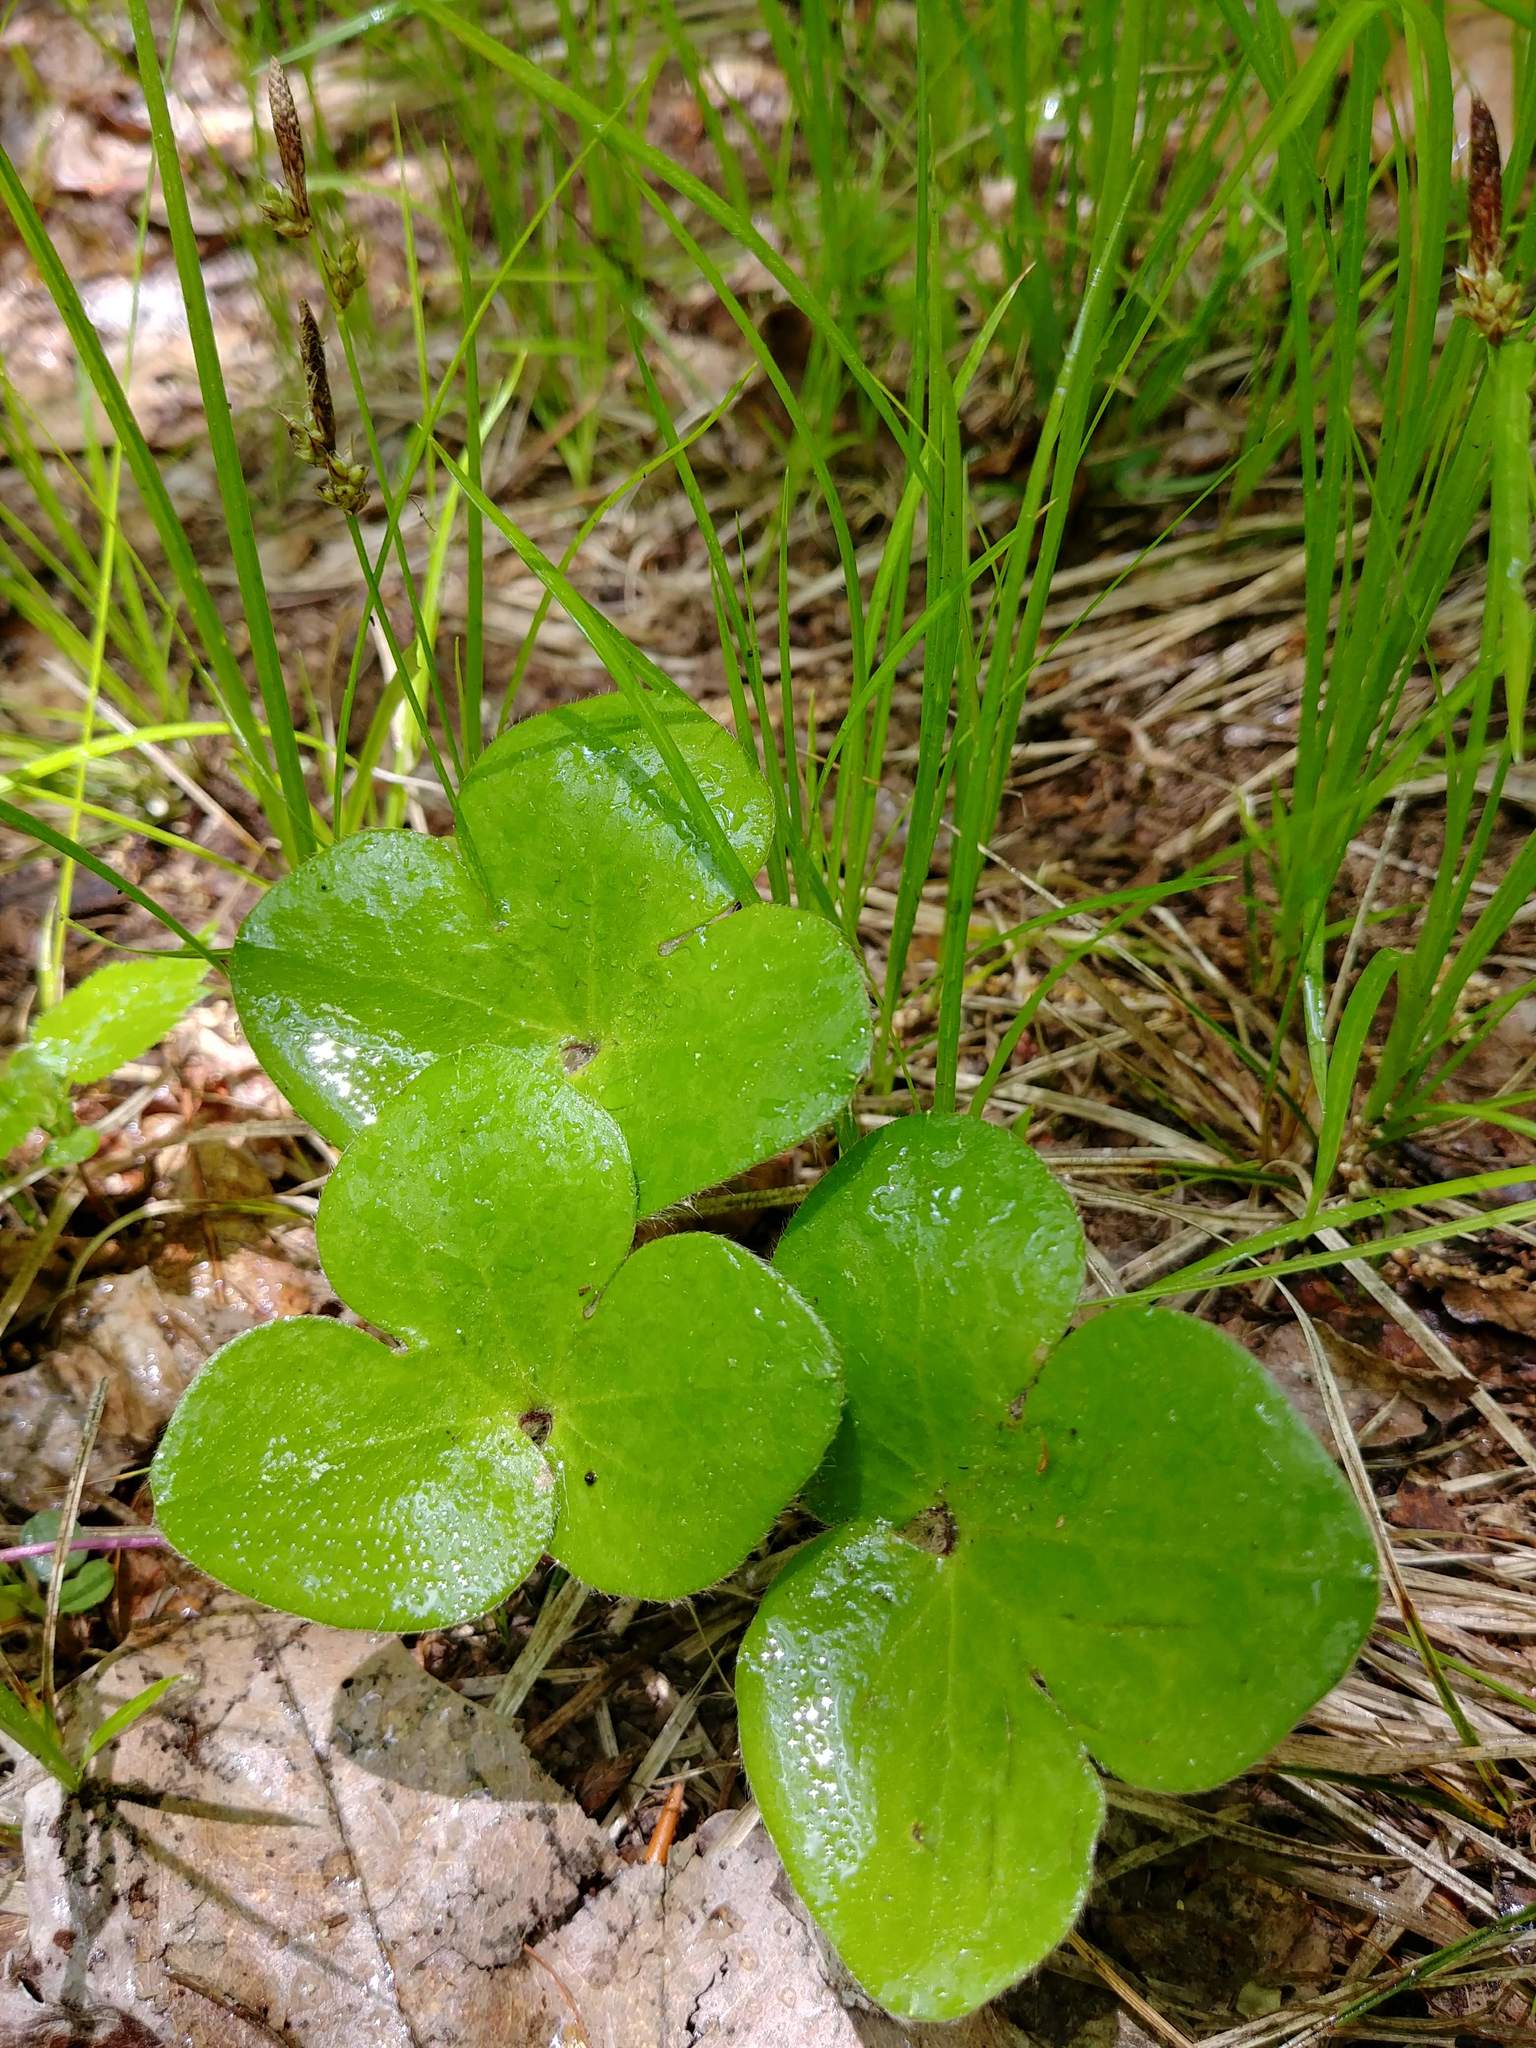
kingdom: Plantae
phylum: Tracheophyta
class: Magnoliopsida
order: Ranunculales
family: Ranunculaceae
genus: Hepatica
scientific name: Hepatica americana
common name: American hepatica
